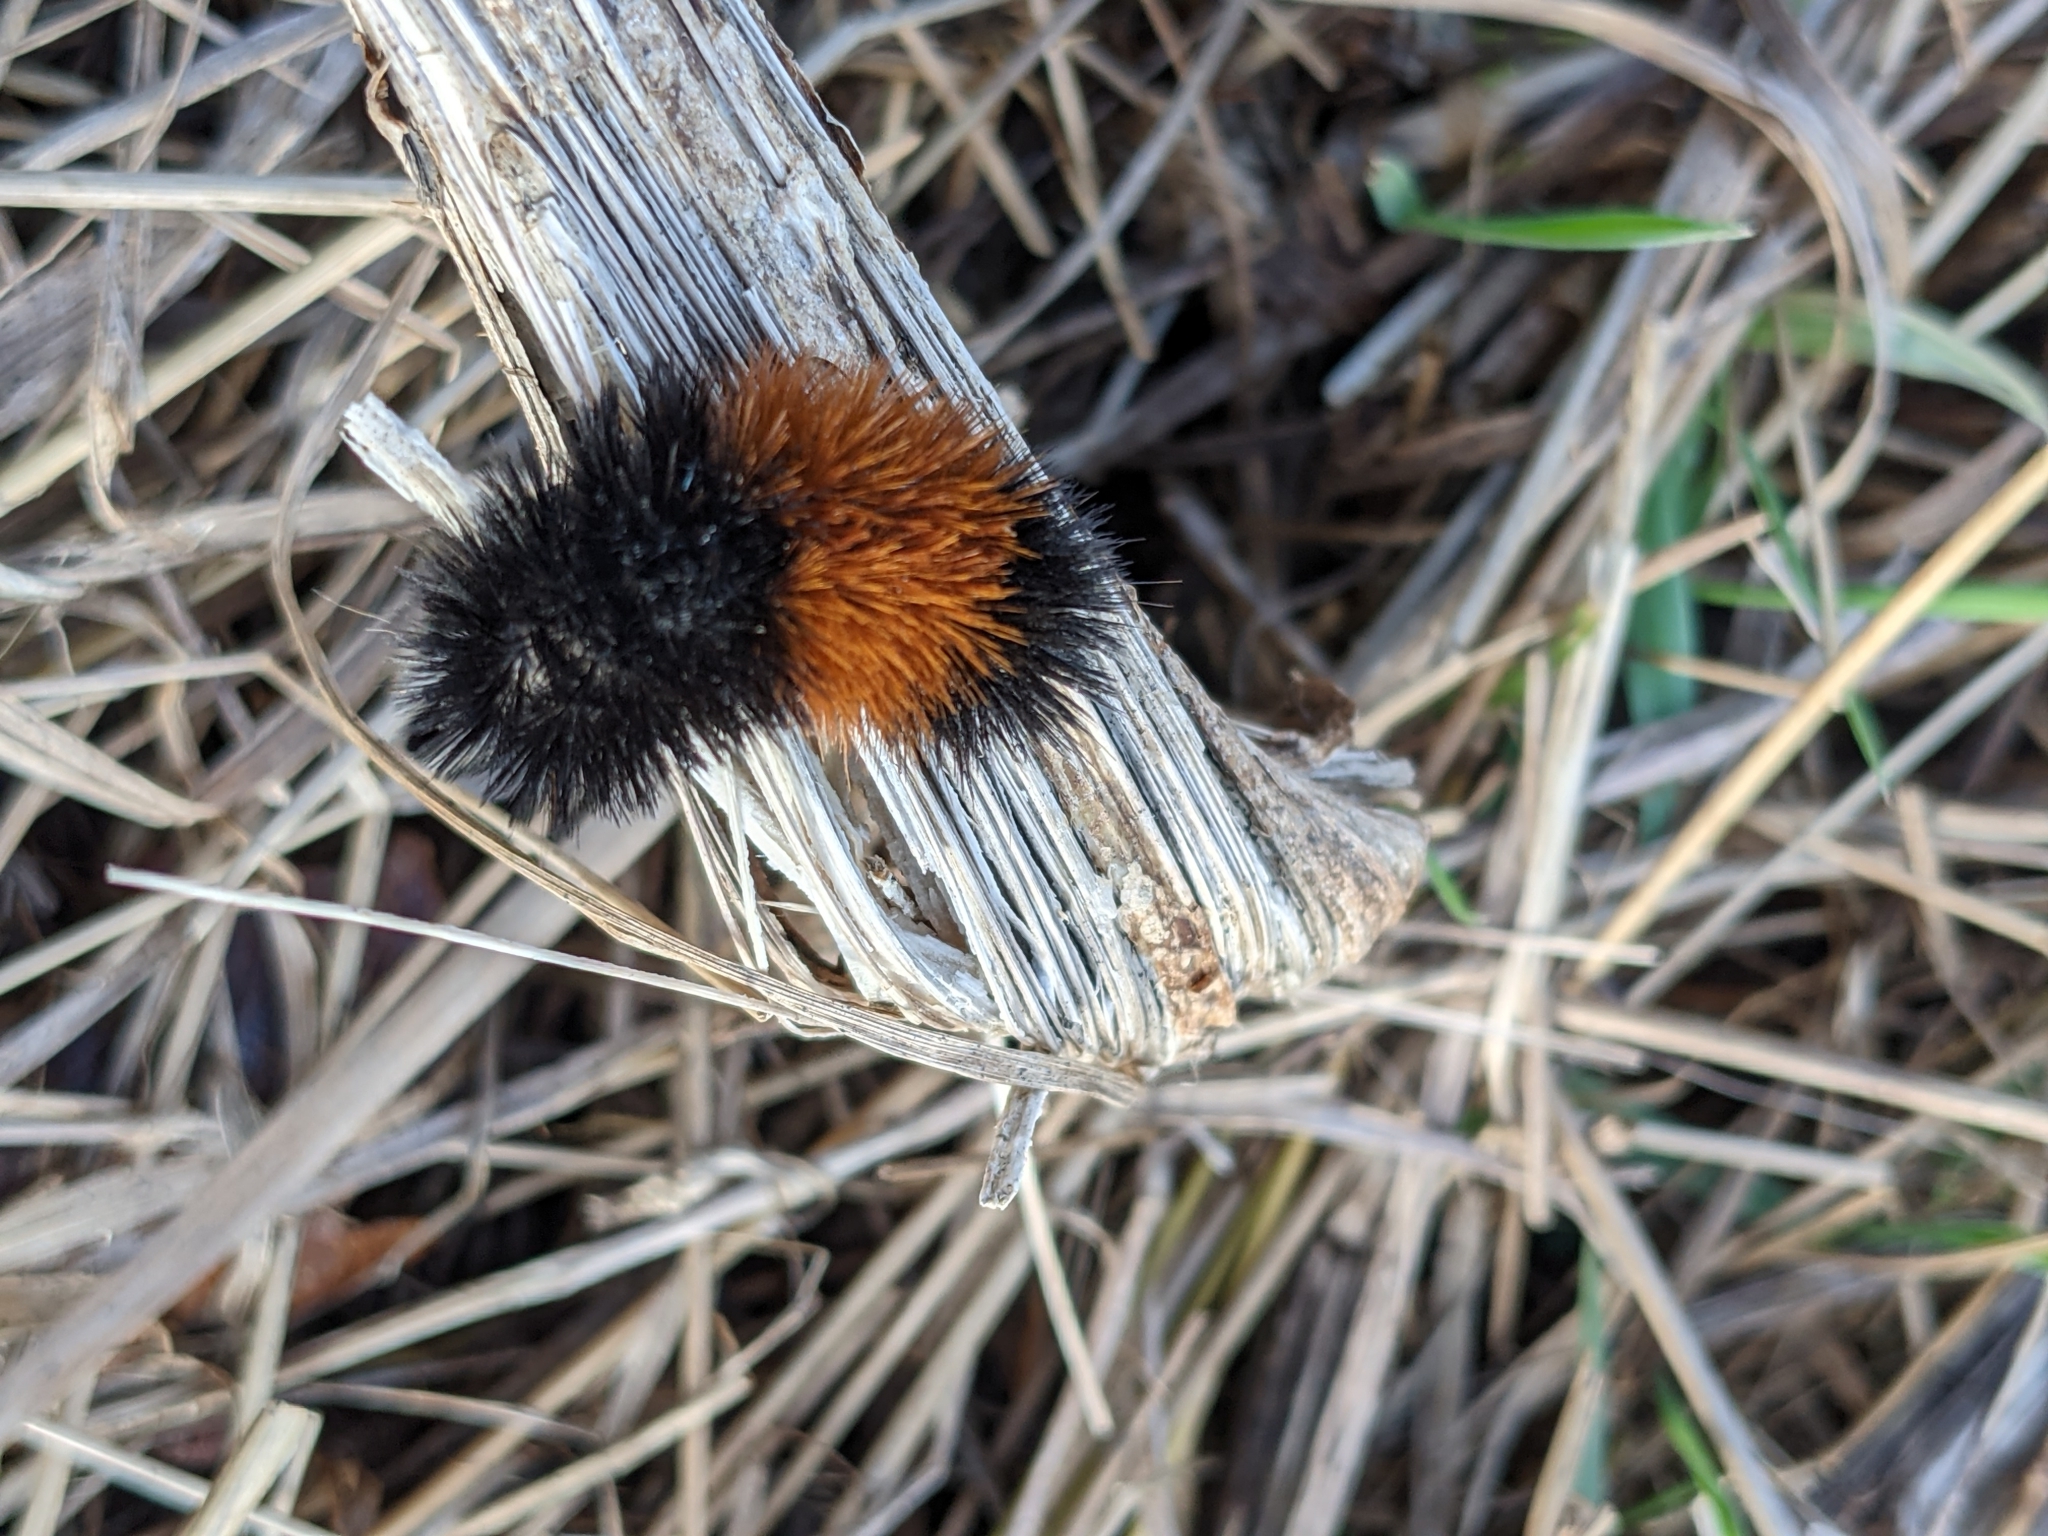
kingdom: Animalia
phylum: Arthropoda
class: Insecta
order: Lepidoptera
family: Erebidae
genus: Pyrrharctia
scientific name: Pyrrharctia isabella
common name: Isabella tiger moth
